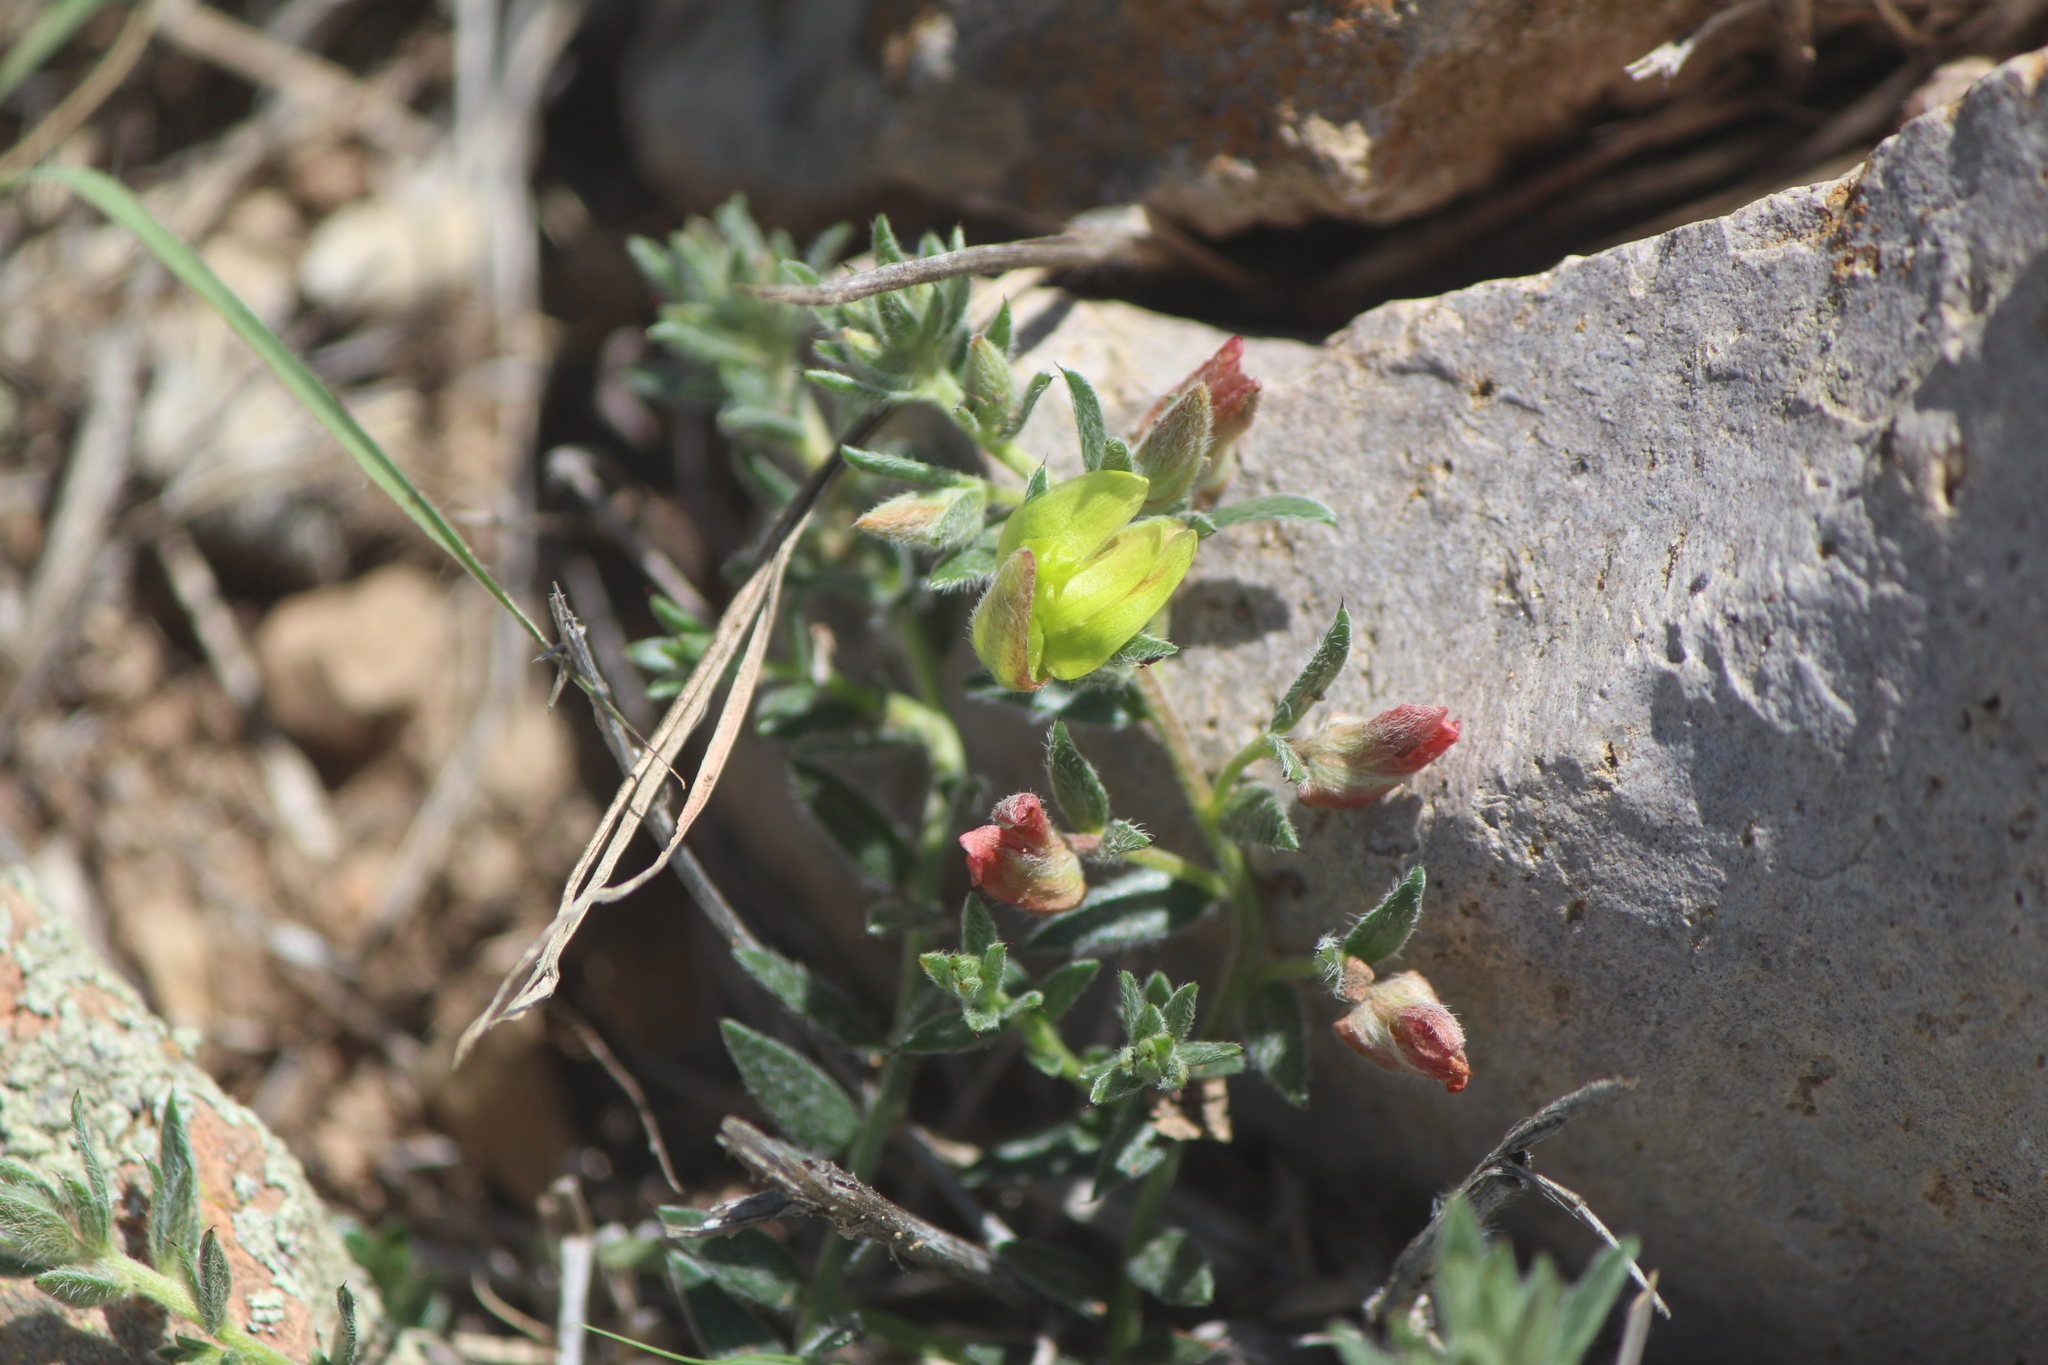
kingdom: Plantae
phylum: Tracheophyta
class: Magnoliopsida
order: Zygophyllales
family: Krameriaceae
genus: Krameria
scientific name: Krameria pauciflora
